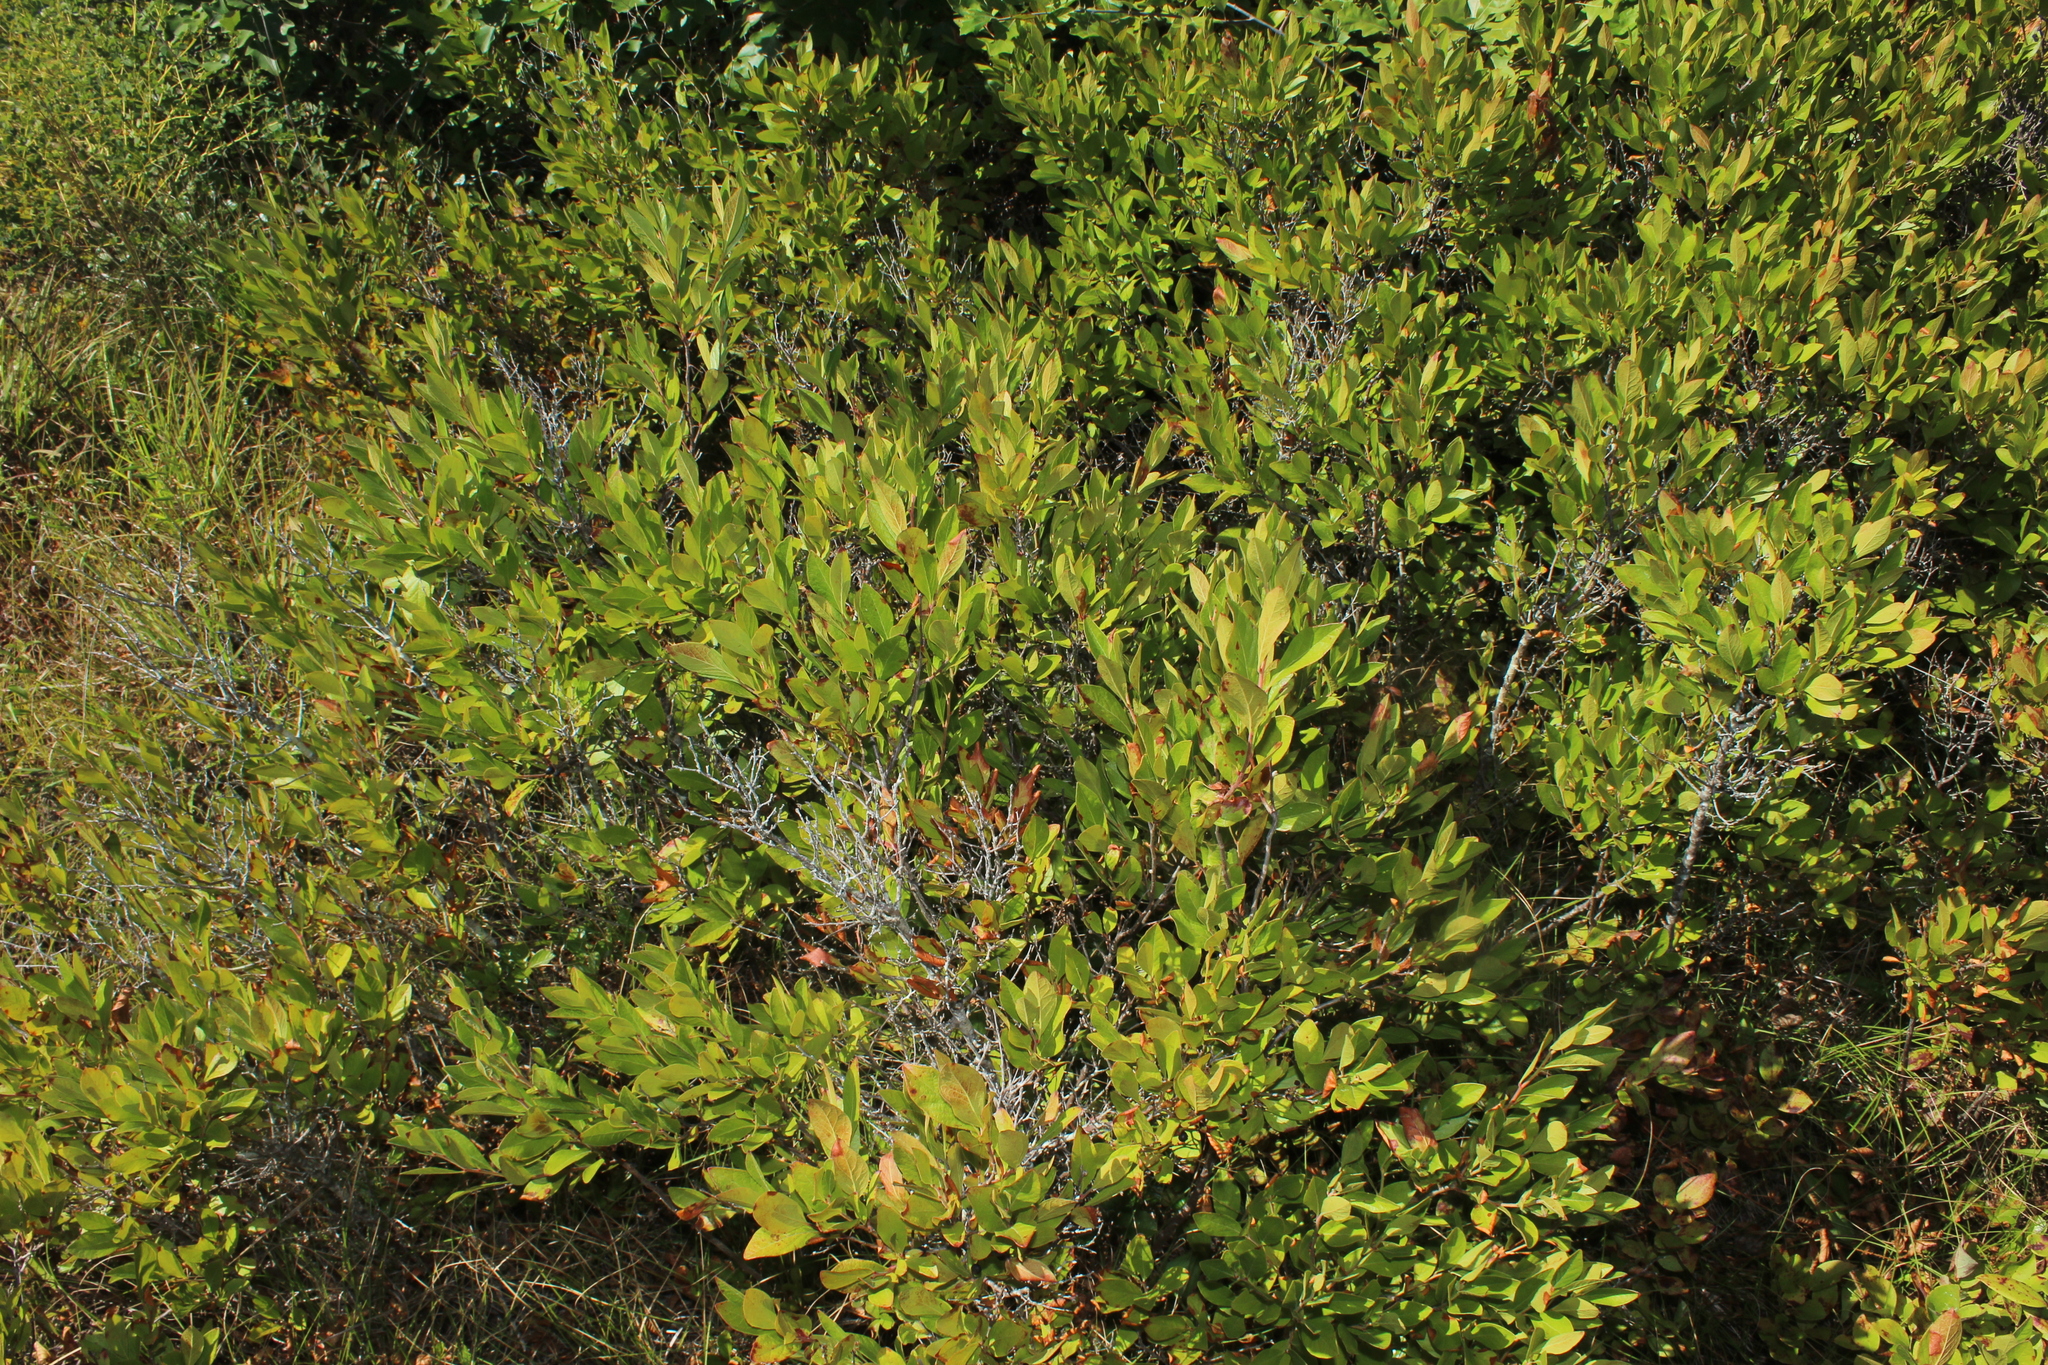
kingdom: Plantae
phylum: Tracheophyta
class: Magnoliopsida
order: Ericales
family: Ericaceae
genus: Gaylussacia
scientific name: Gaylussacia baccata
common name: Black huckleberry
